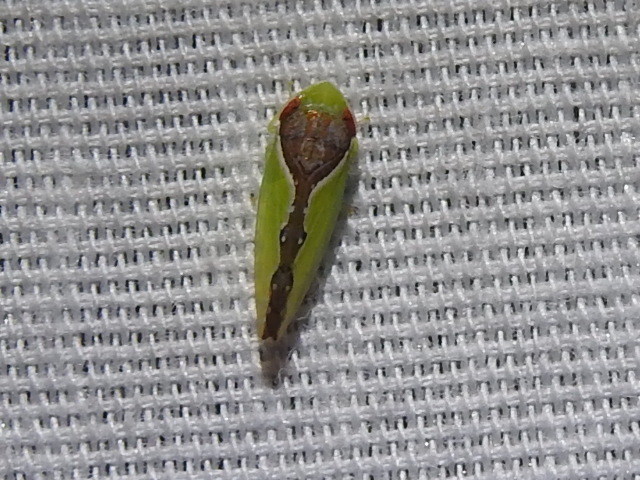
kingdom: Animalia
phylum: Arthropoda
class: Insecta
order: Hemiptera
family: Cicadellidae
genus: Omansobara ing
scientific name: Omansobara ing Omansobara palliolata
